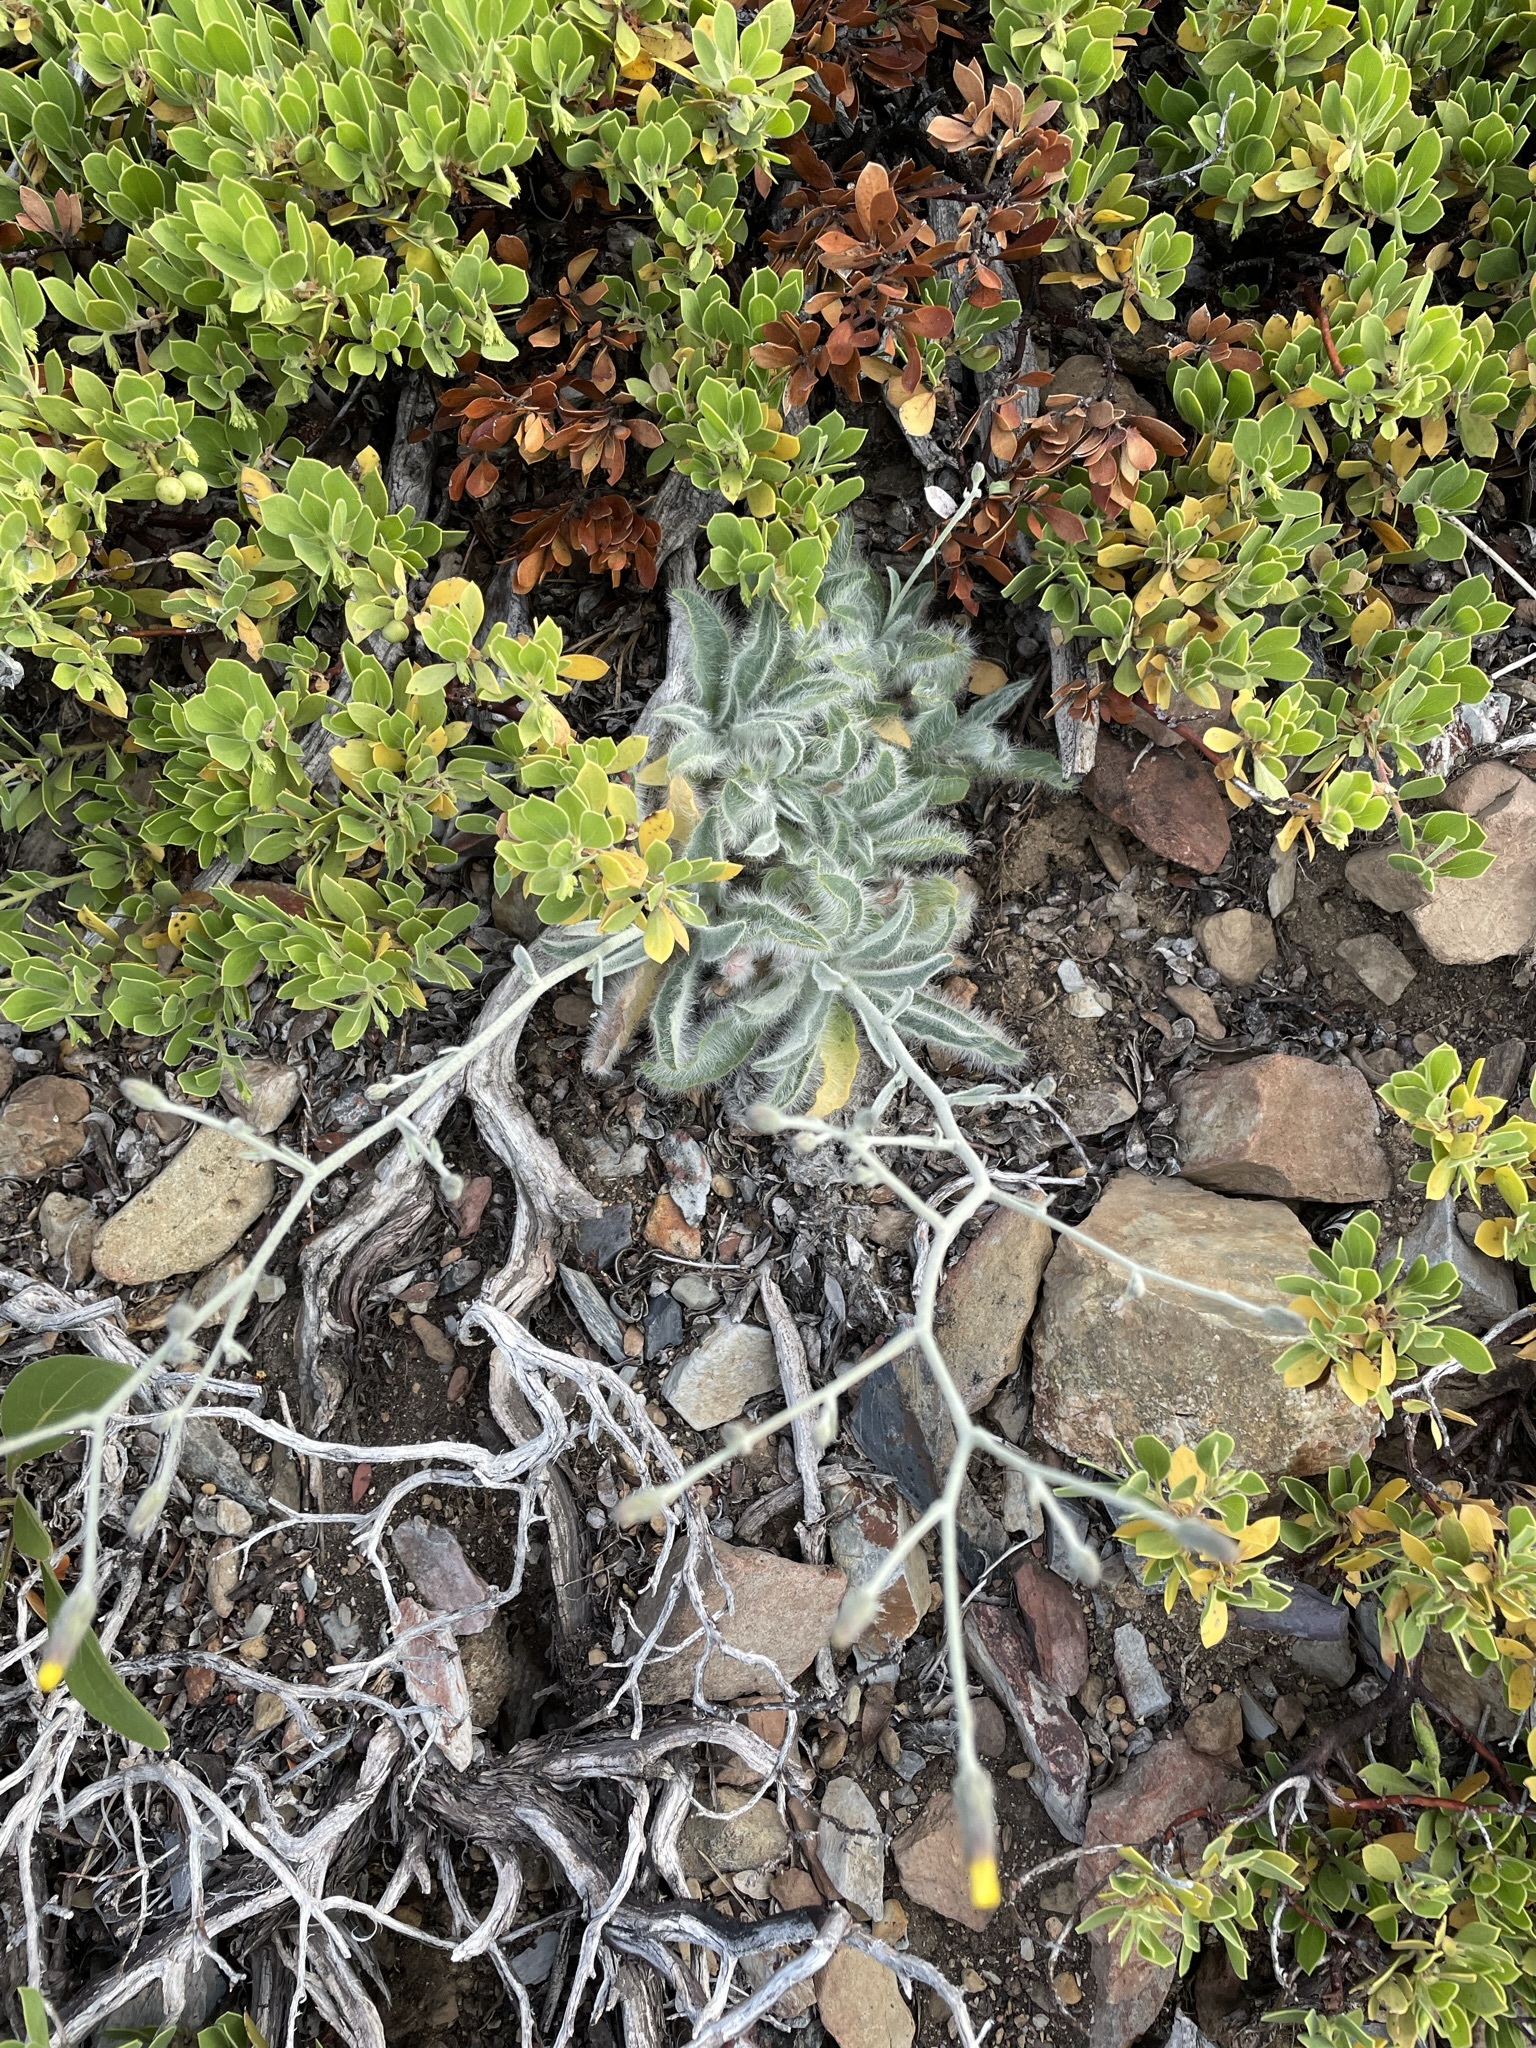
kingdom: Plantae
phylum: Tracheophyta
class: Magnoliopsida
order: Asterales
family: Asteraceae
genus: Hieracium
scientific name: Hieracium horridum
